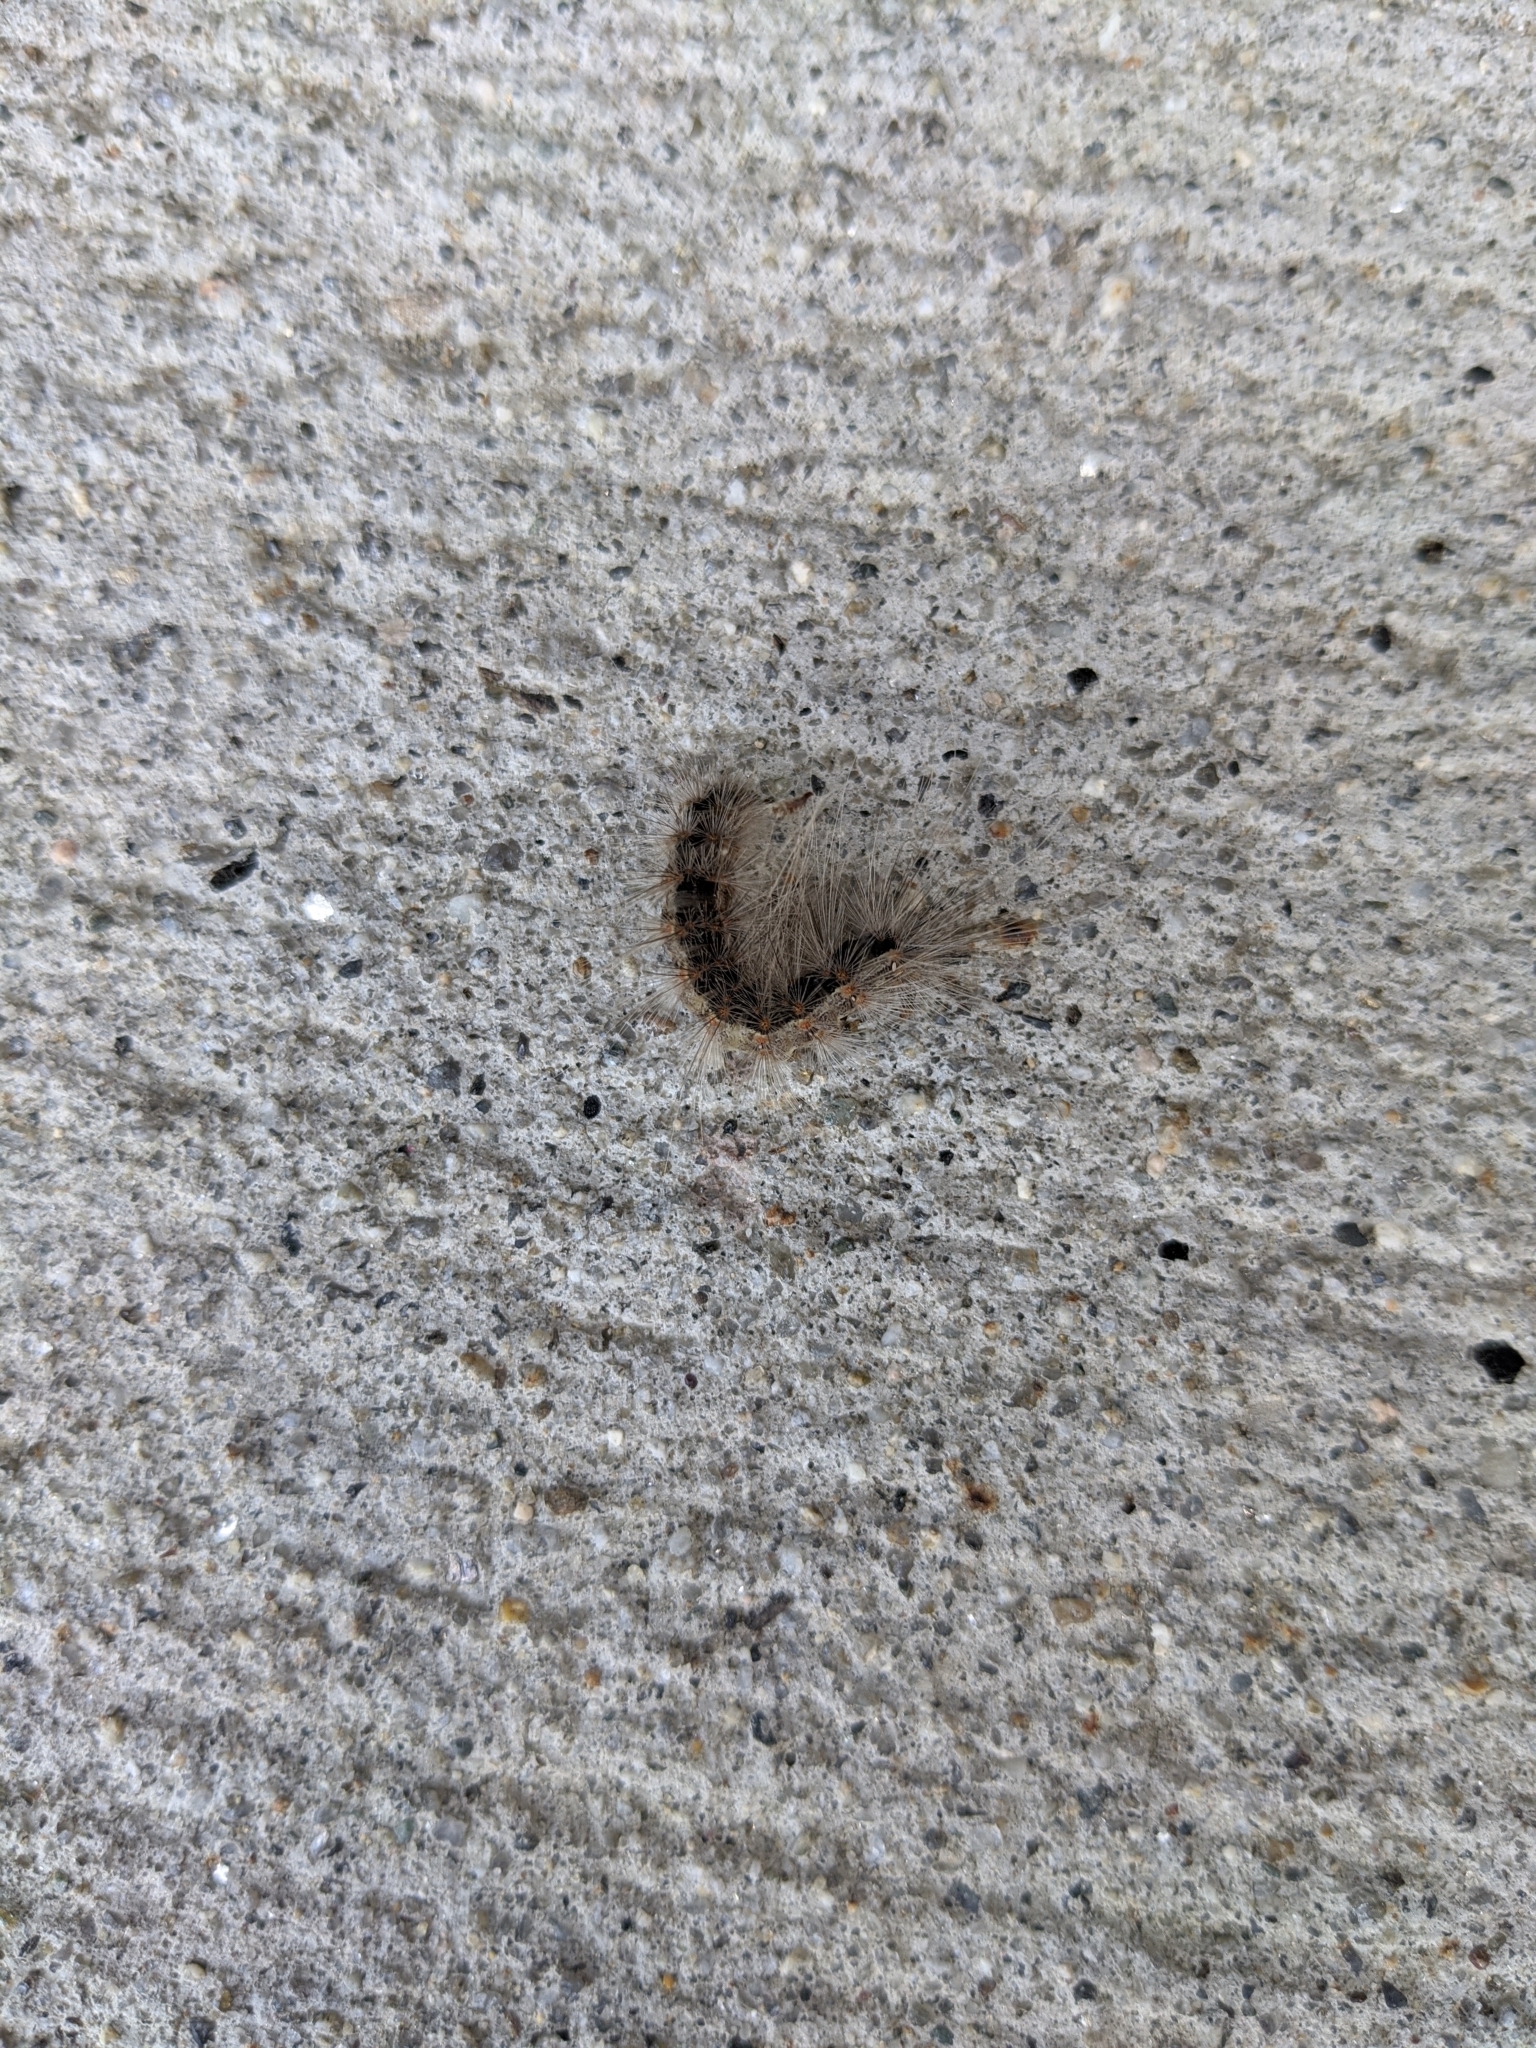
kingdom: Animalia
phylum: Arthropoda
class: Insecta
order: Lepidoptera
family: Erebidae
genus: Hyphantria
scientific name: Hyphantria cunea
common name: American white moth
